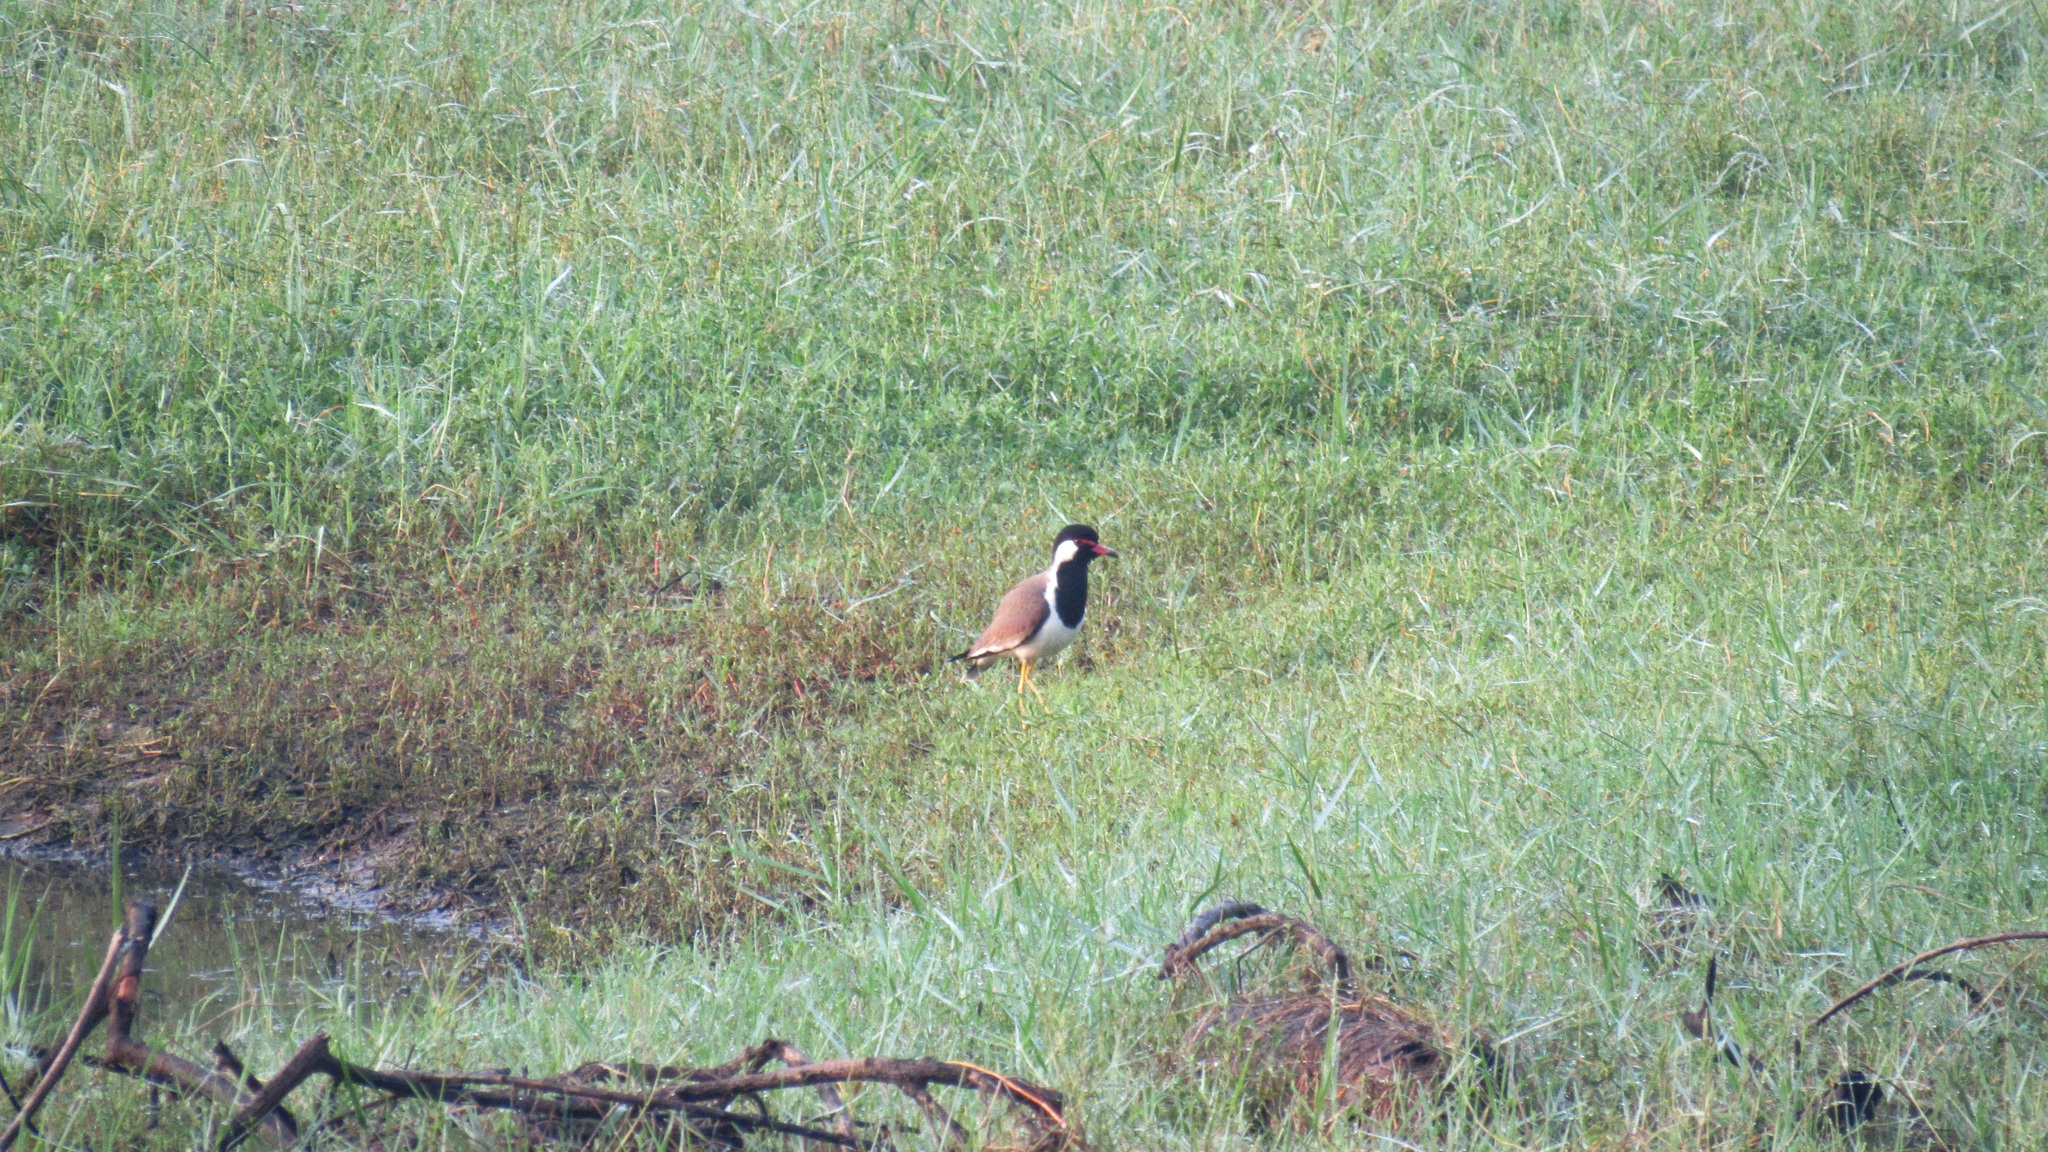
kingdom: Animalia
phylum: Chordata
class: Aves
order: Charadriiformes
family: Charadriidae
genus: Vanellus
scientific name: Vanellus indicus
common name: Red-wattled lapwing
